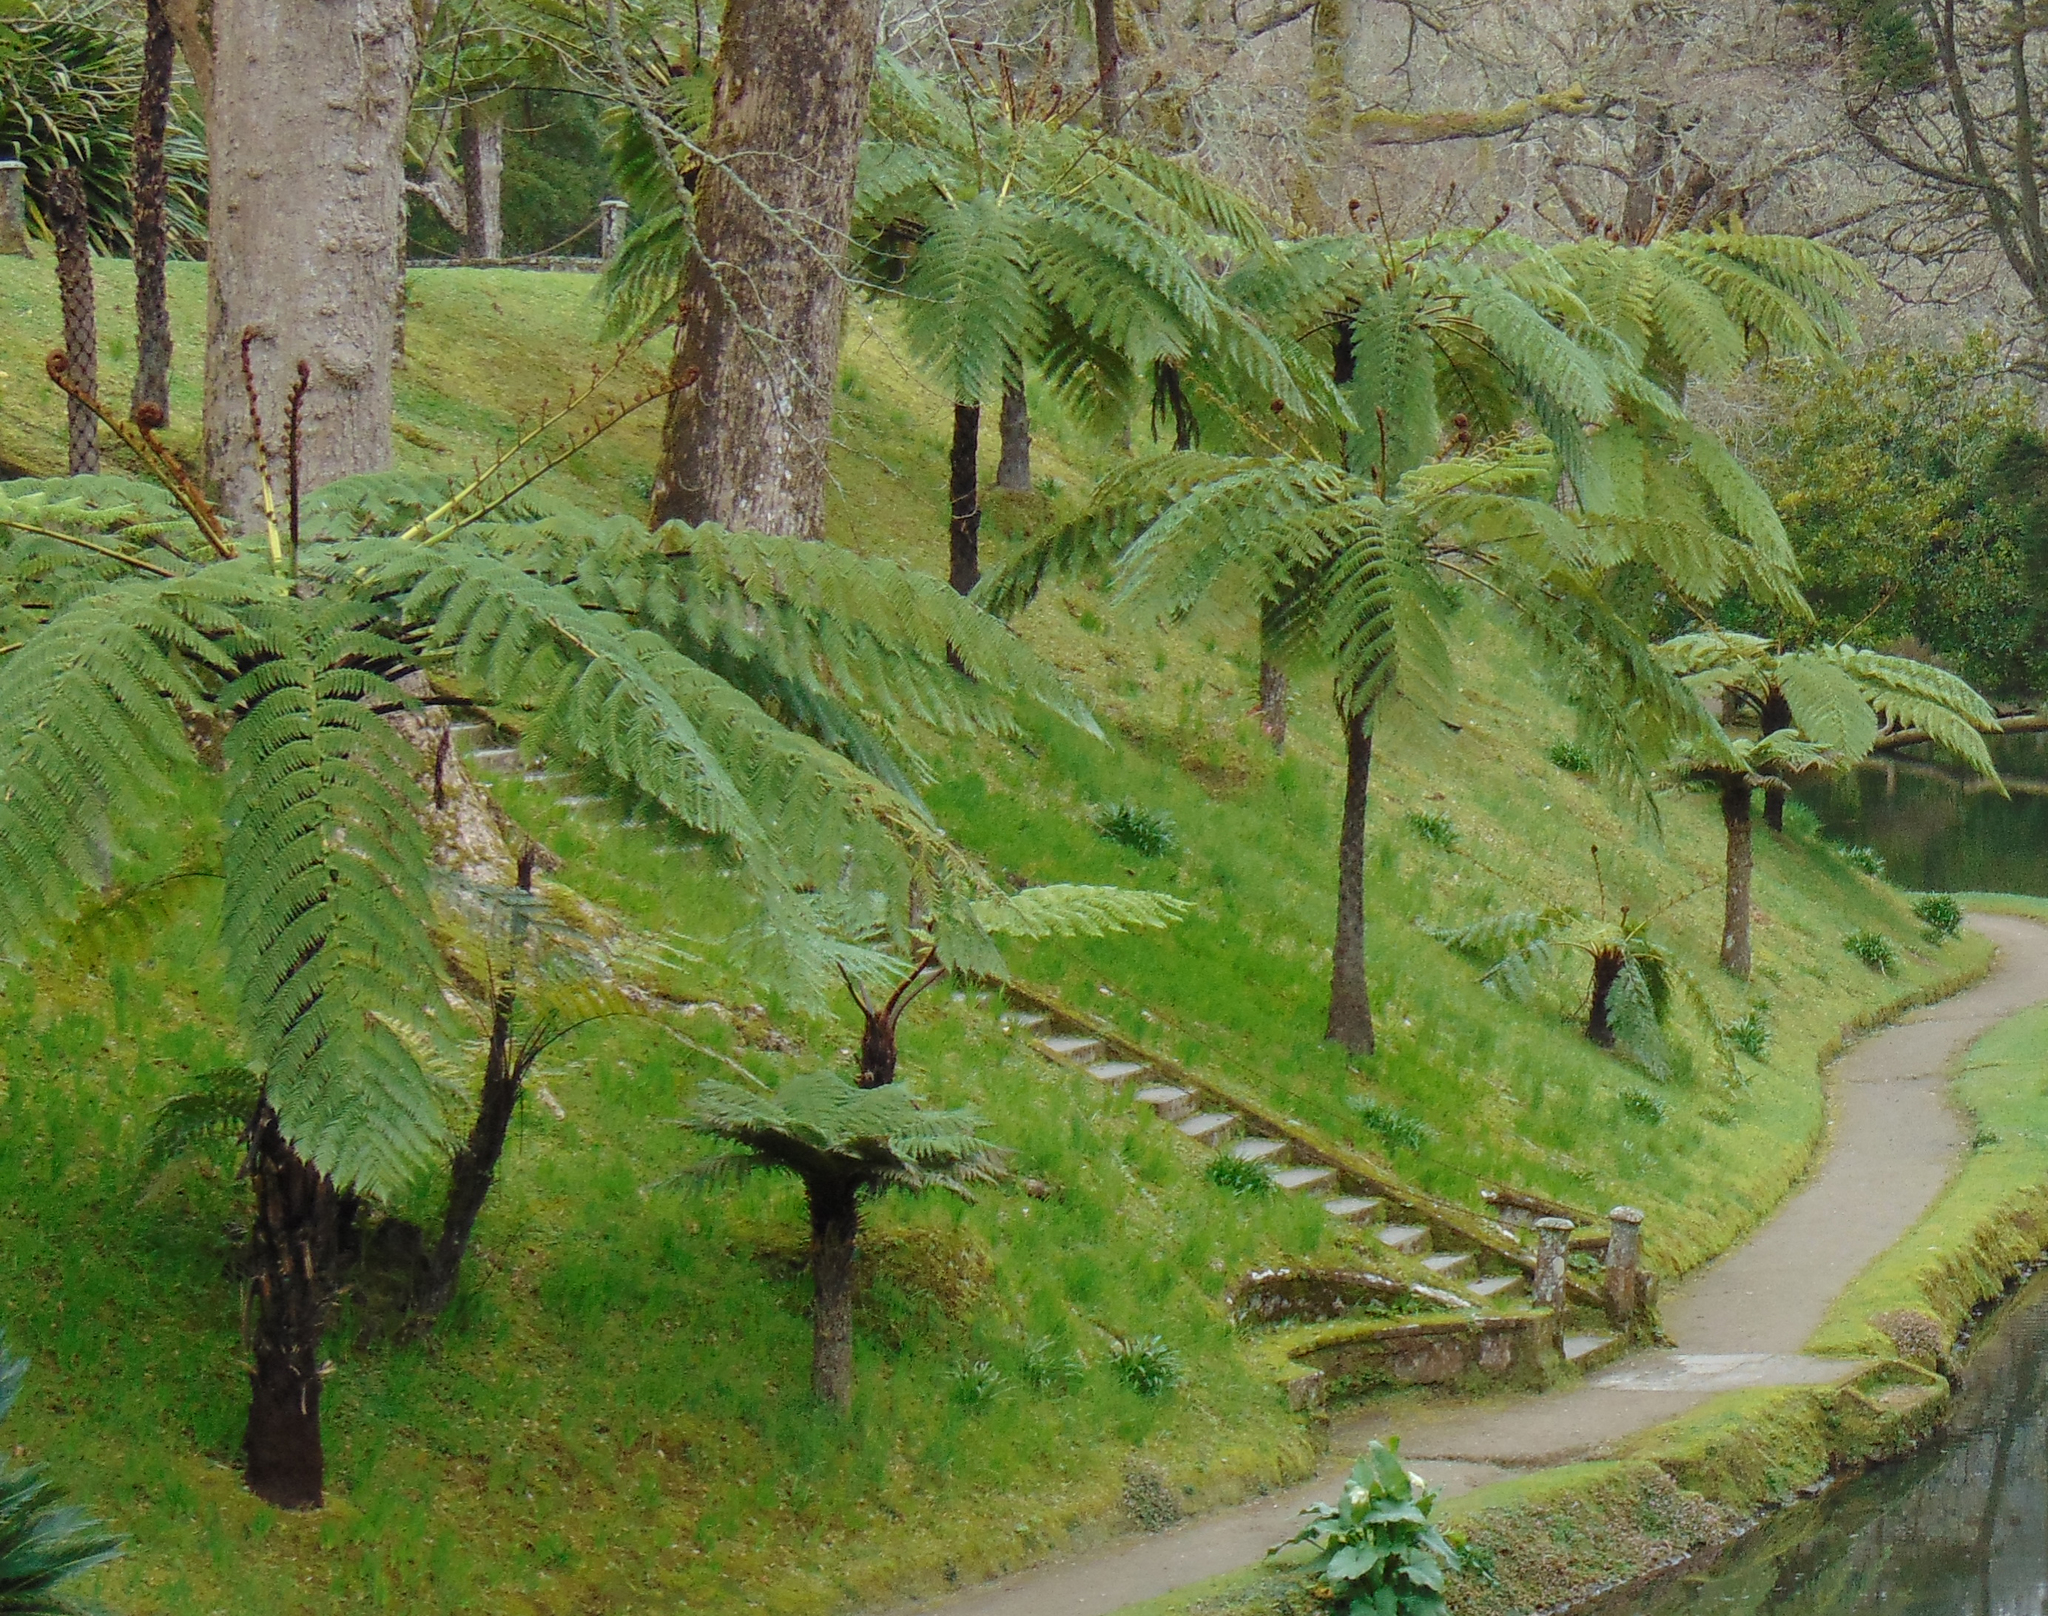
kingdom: Plantae
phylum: Tracheophyta
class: Polypodiopsida
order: Cyatheales
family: Cyatheaceae
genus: Sphaeropteris
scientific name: Sphaeropteris cooperi
